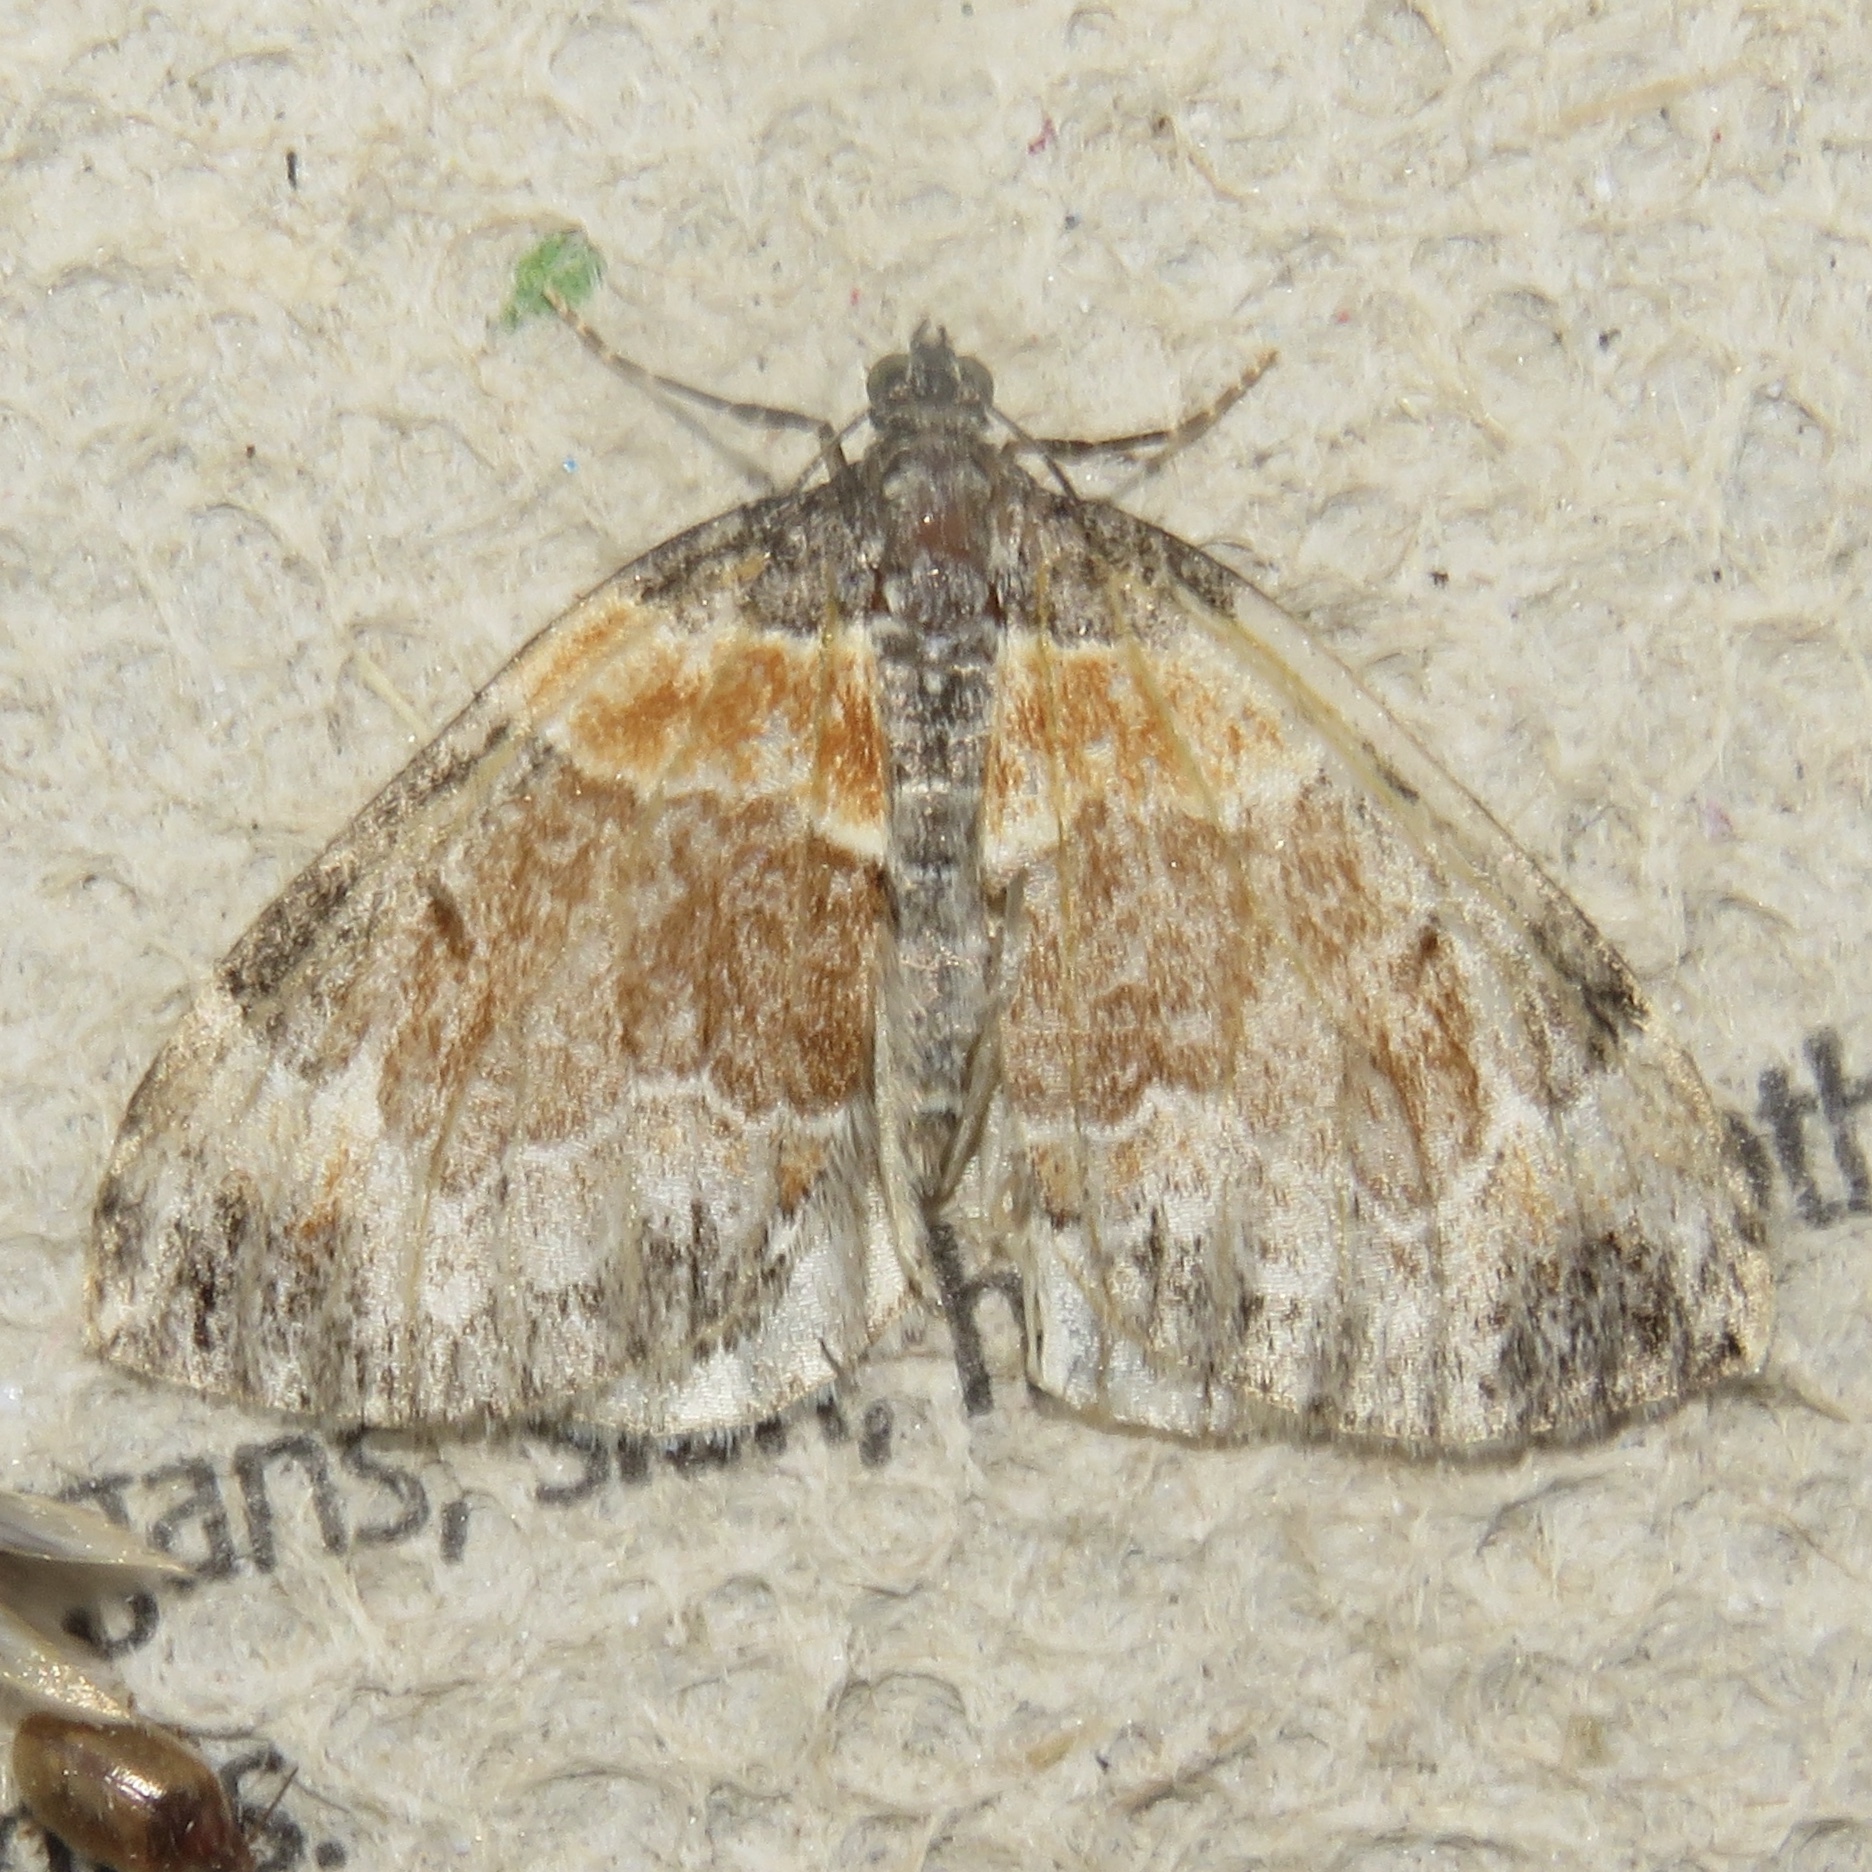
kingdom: Animalia
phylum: Arthropoda
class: Insecta
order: Lepidoptera
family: Geometridae
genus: Dysstroma
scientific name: Dysstroma hersiliata
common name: Orange-barred carpet
